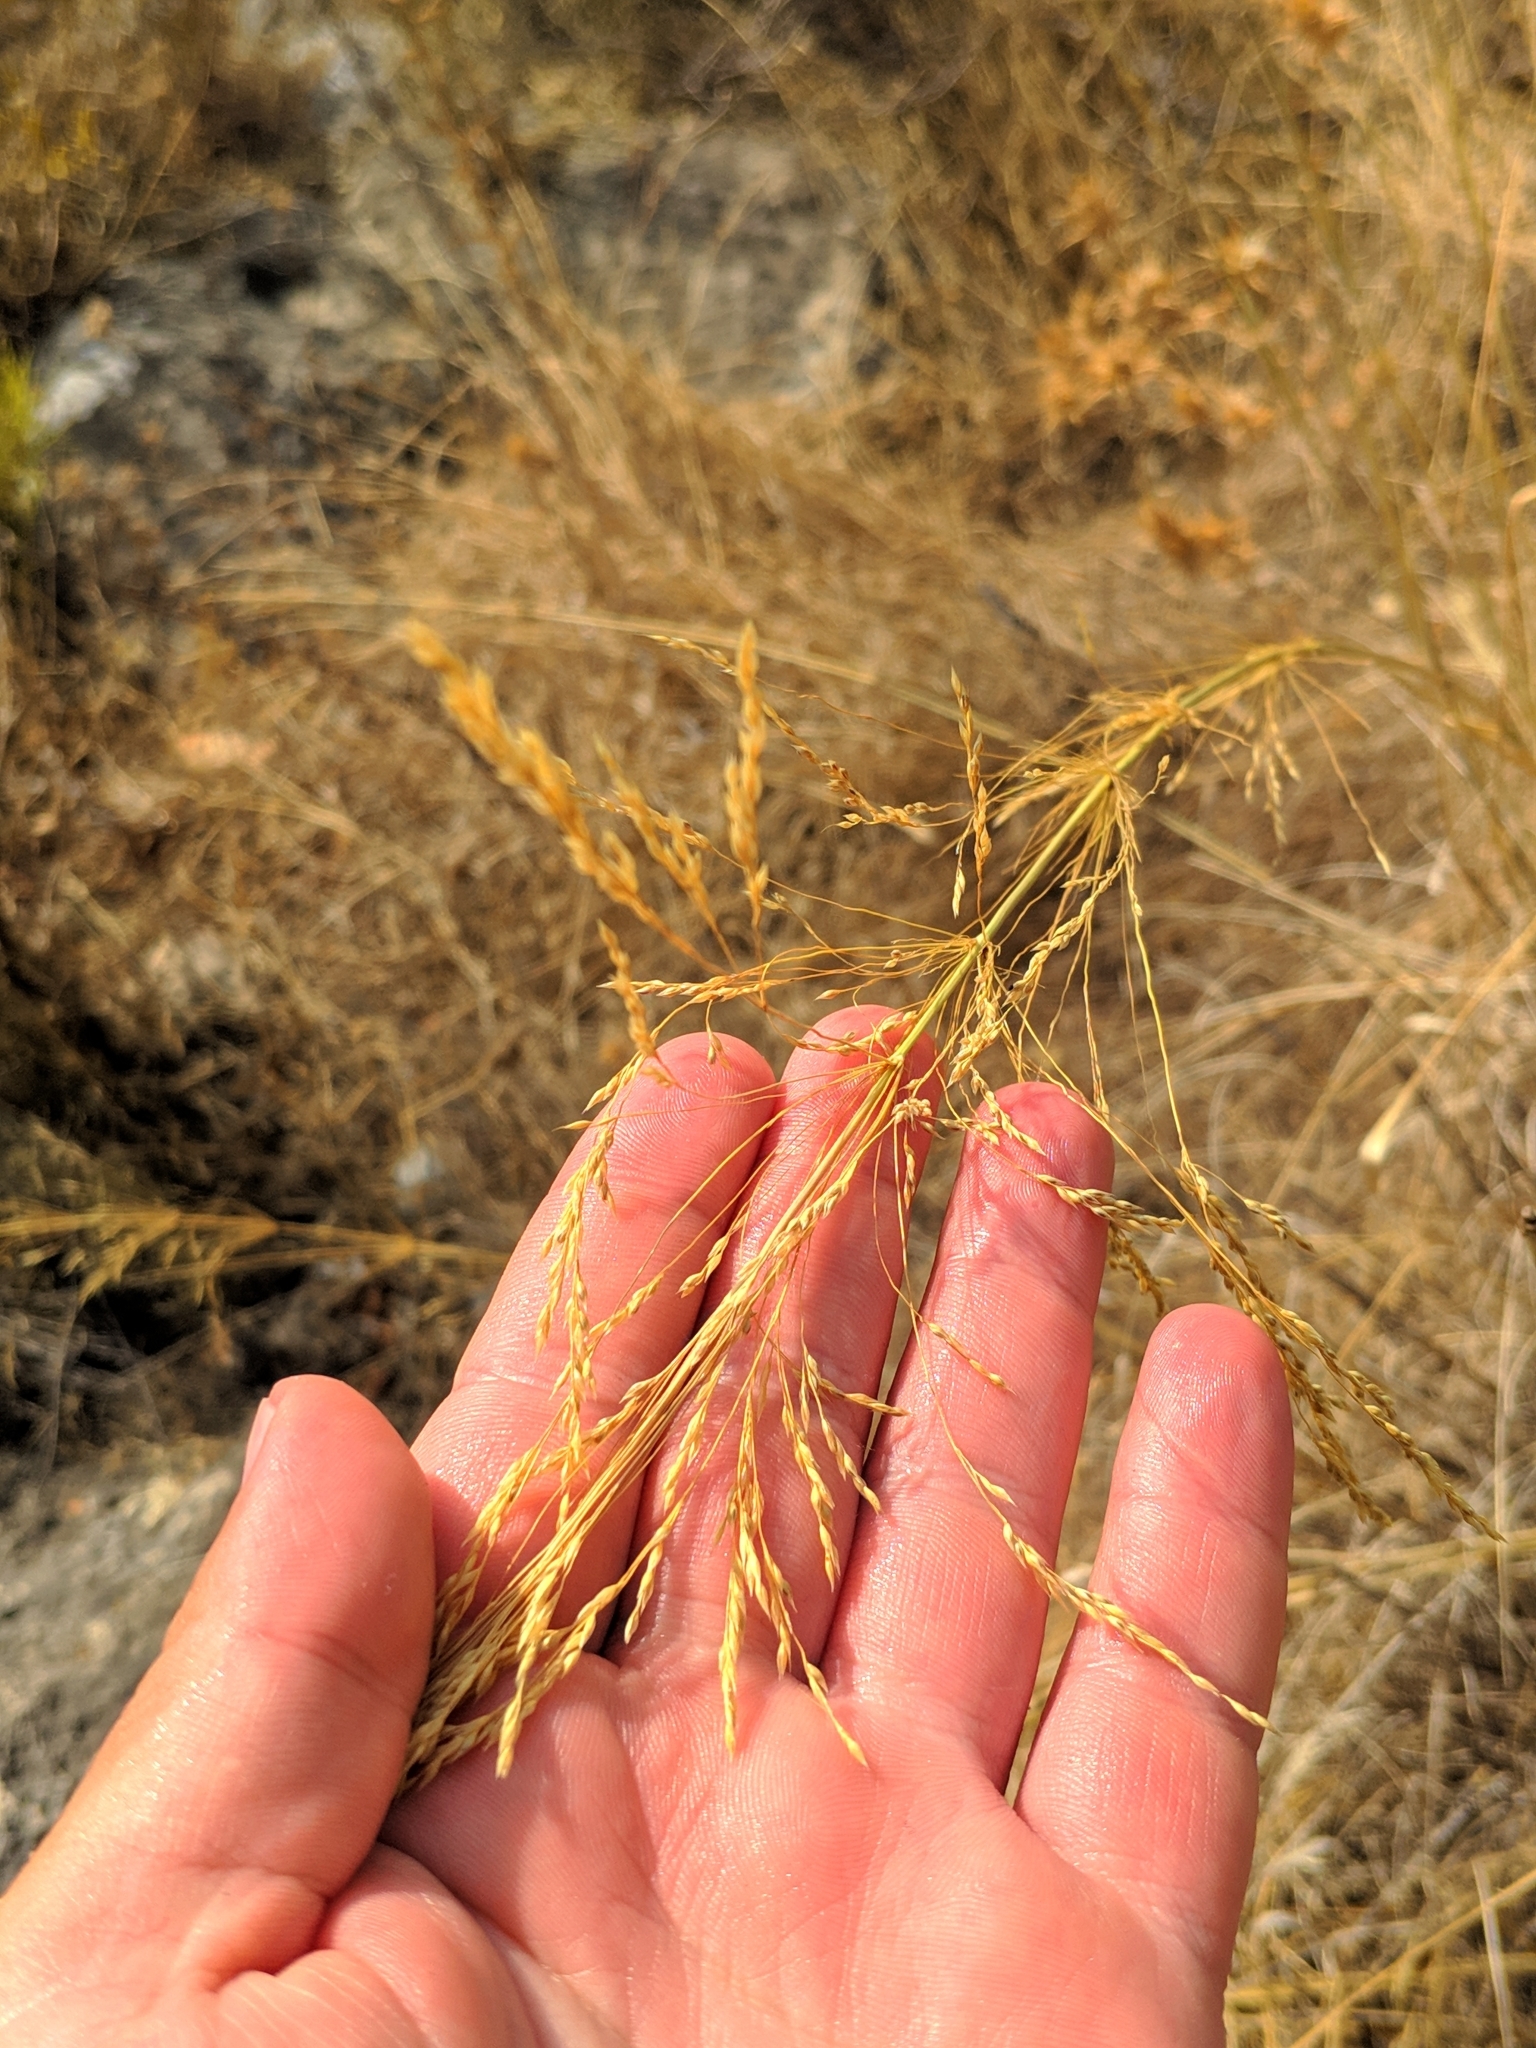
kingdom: Plantae
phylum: Tracheophyta
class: Liliopsida
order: Poales
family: Poaceae
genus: Oloptum
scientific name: Oloptum thomasii
